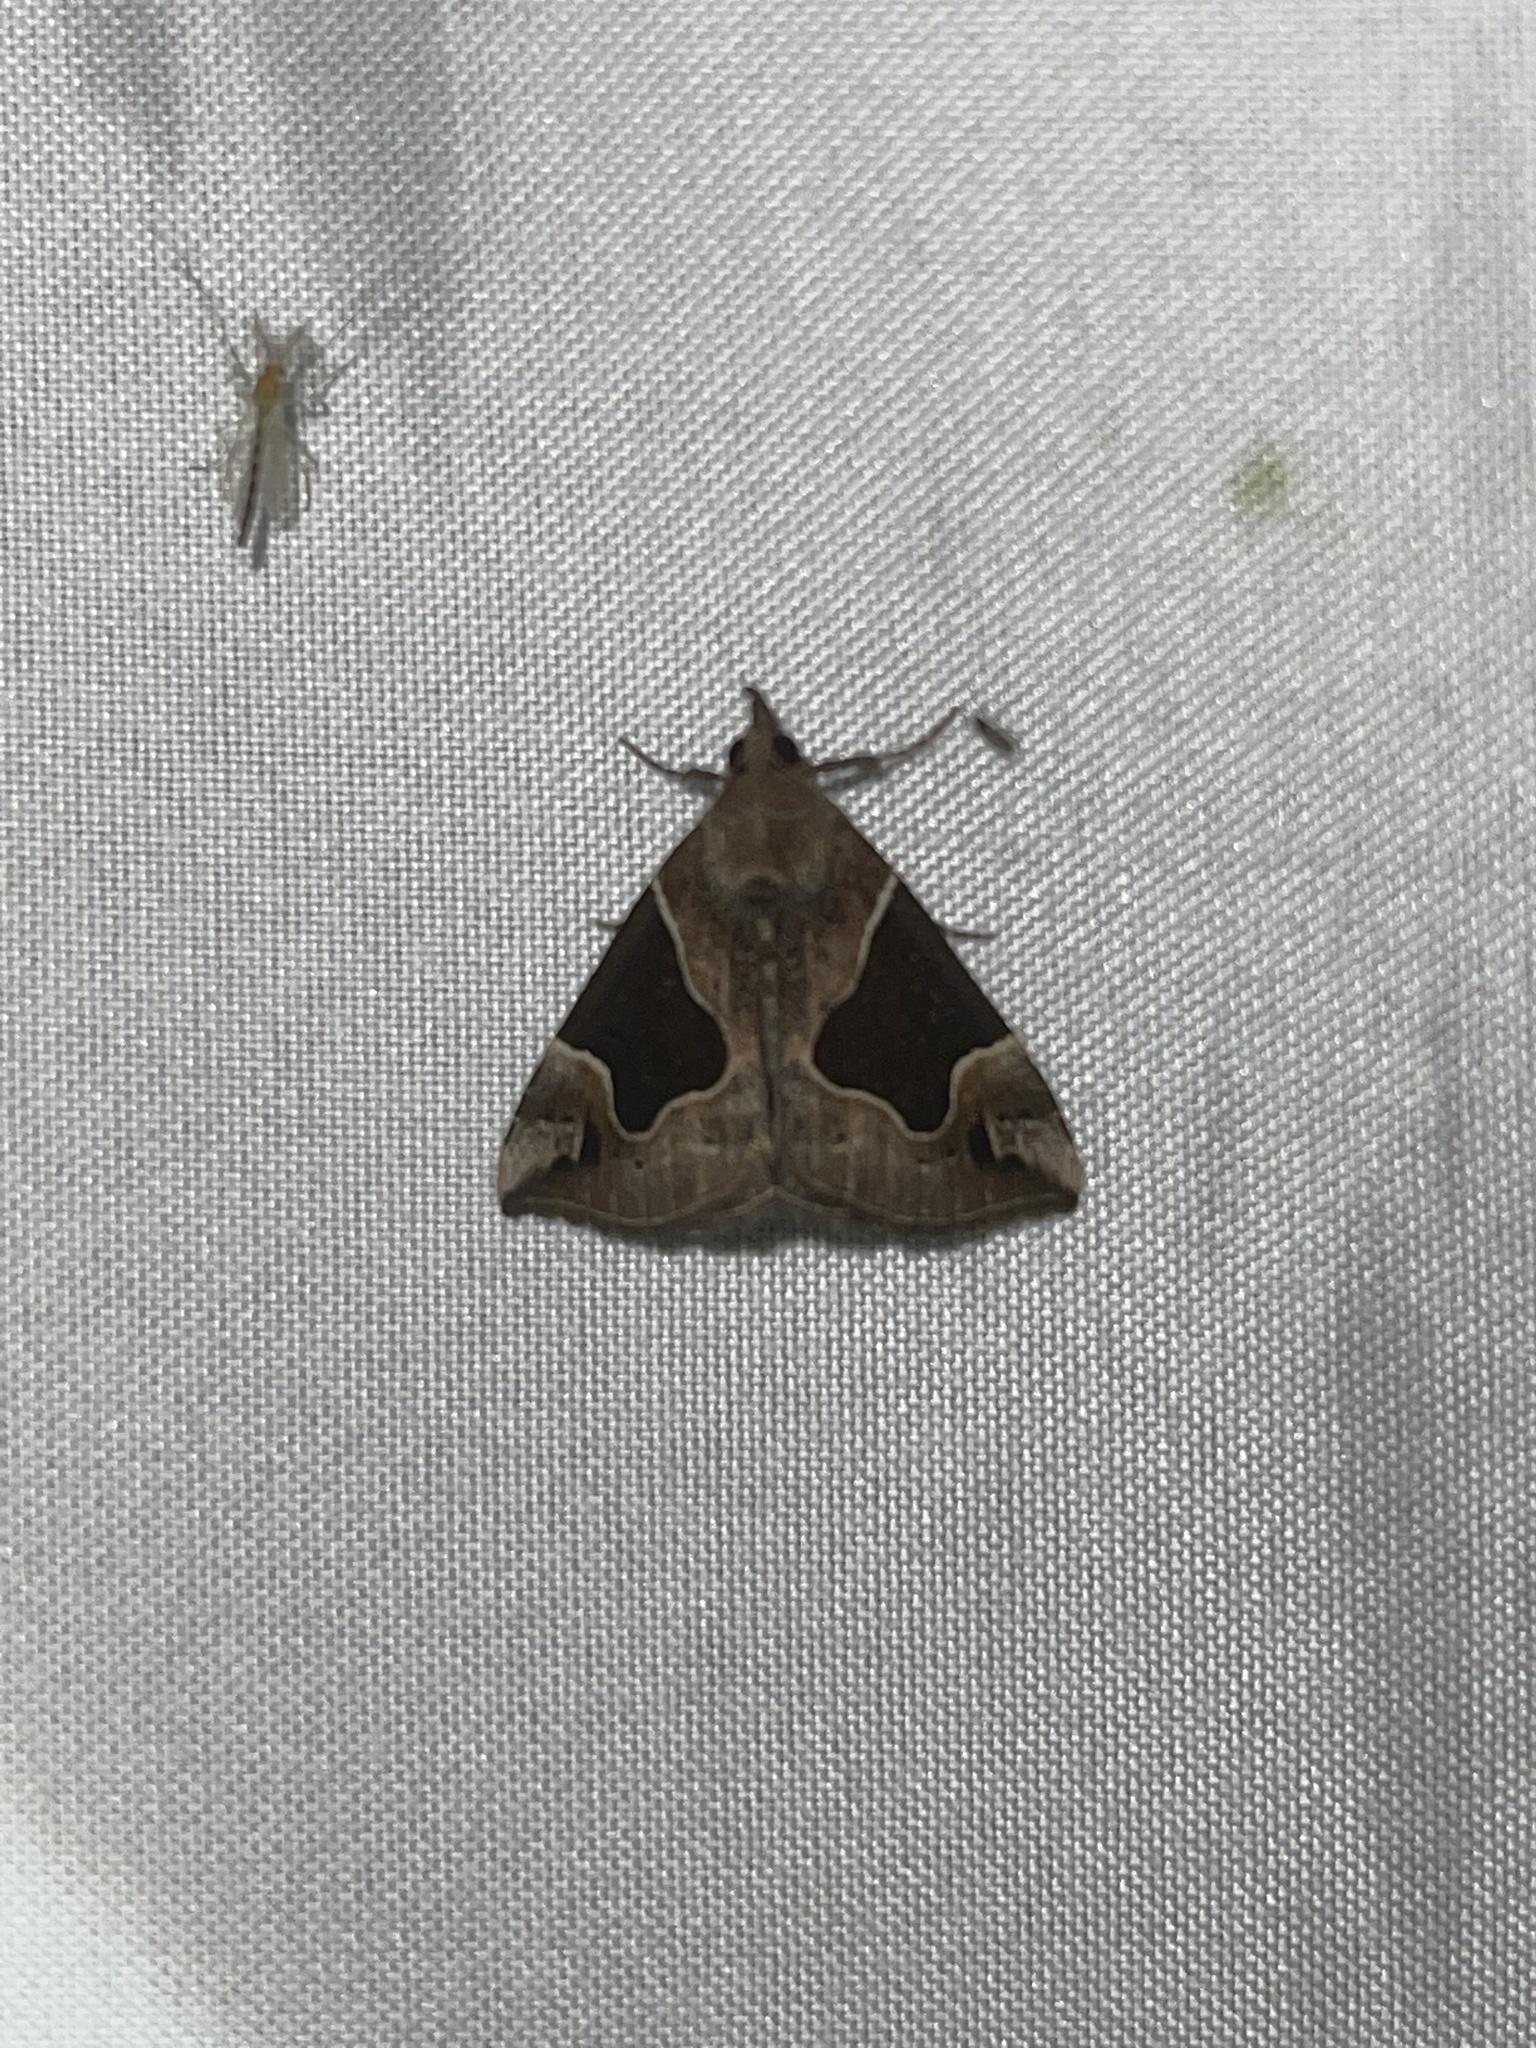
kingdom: Animalia
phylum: Arthropoda
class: Insecta
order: Lepidoptera
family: Erebidae
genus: Hypena
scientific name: Hypena manalis
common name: Flowing-line bomolocha moth
